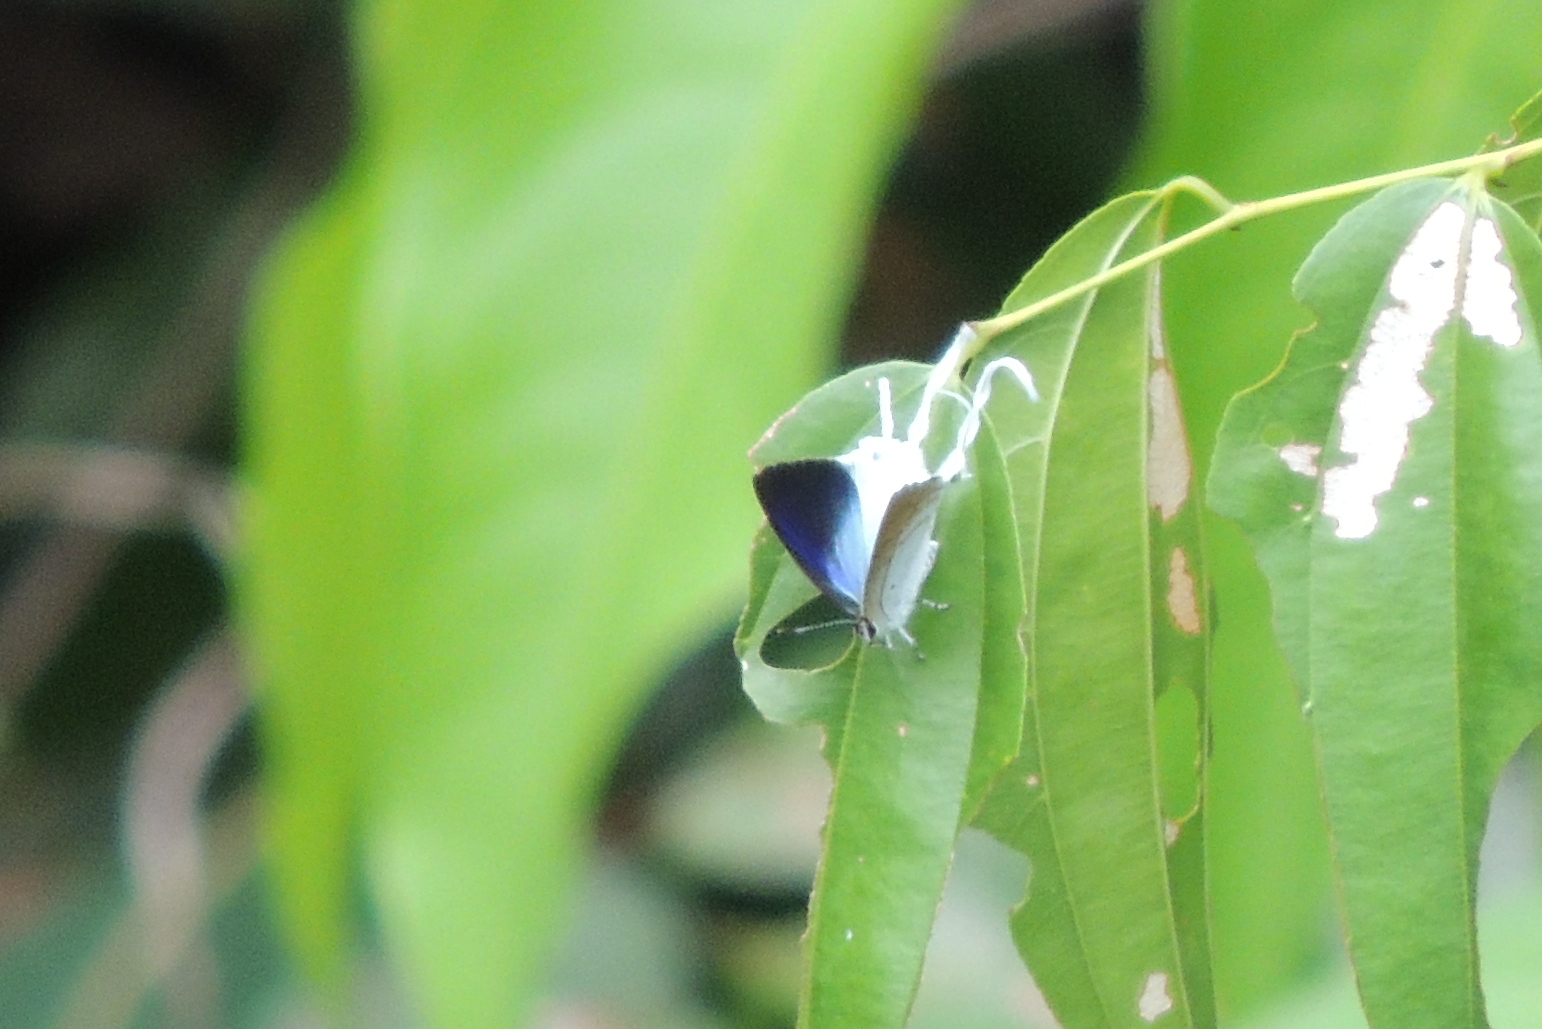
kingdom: Animalia
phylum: Arthropoda
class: Insecta
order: Lepidoptera
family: Lycaenidae
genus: Zeltus
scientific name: Zeltus amasa
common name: Fluffy tit
